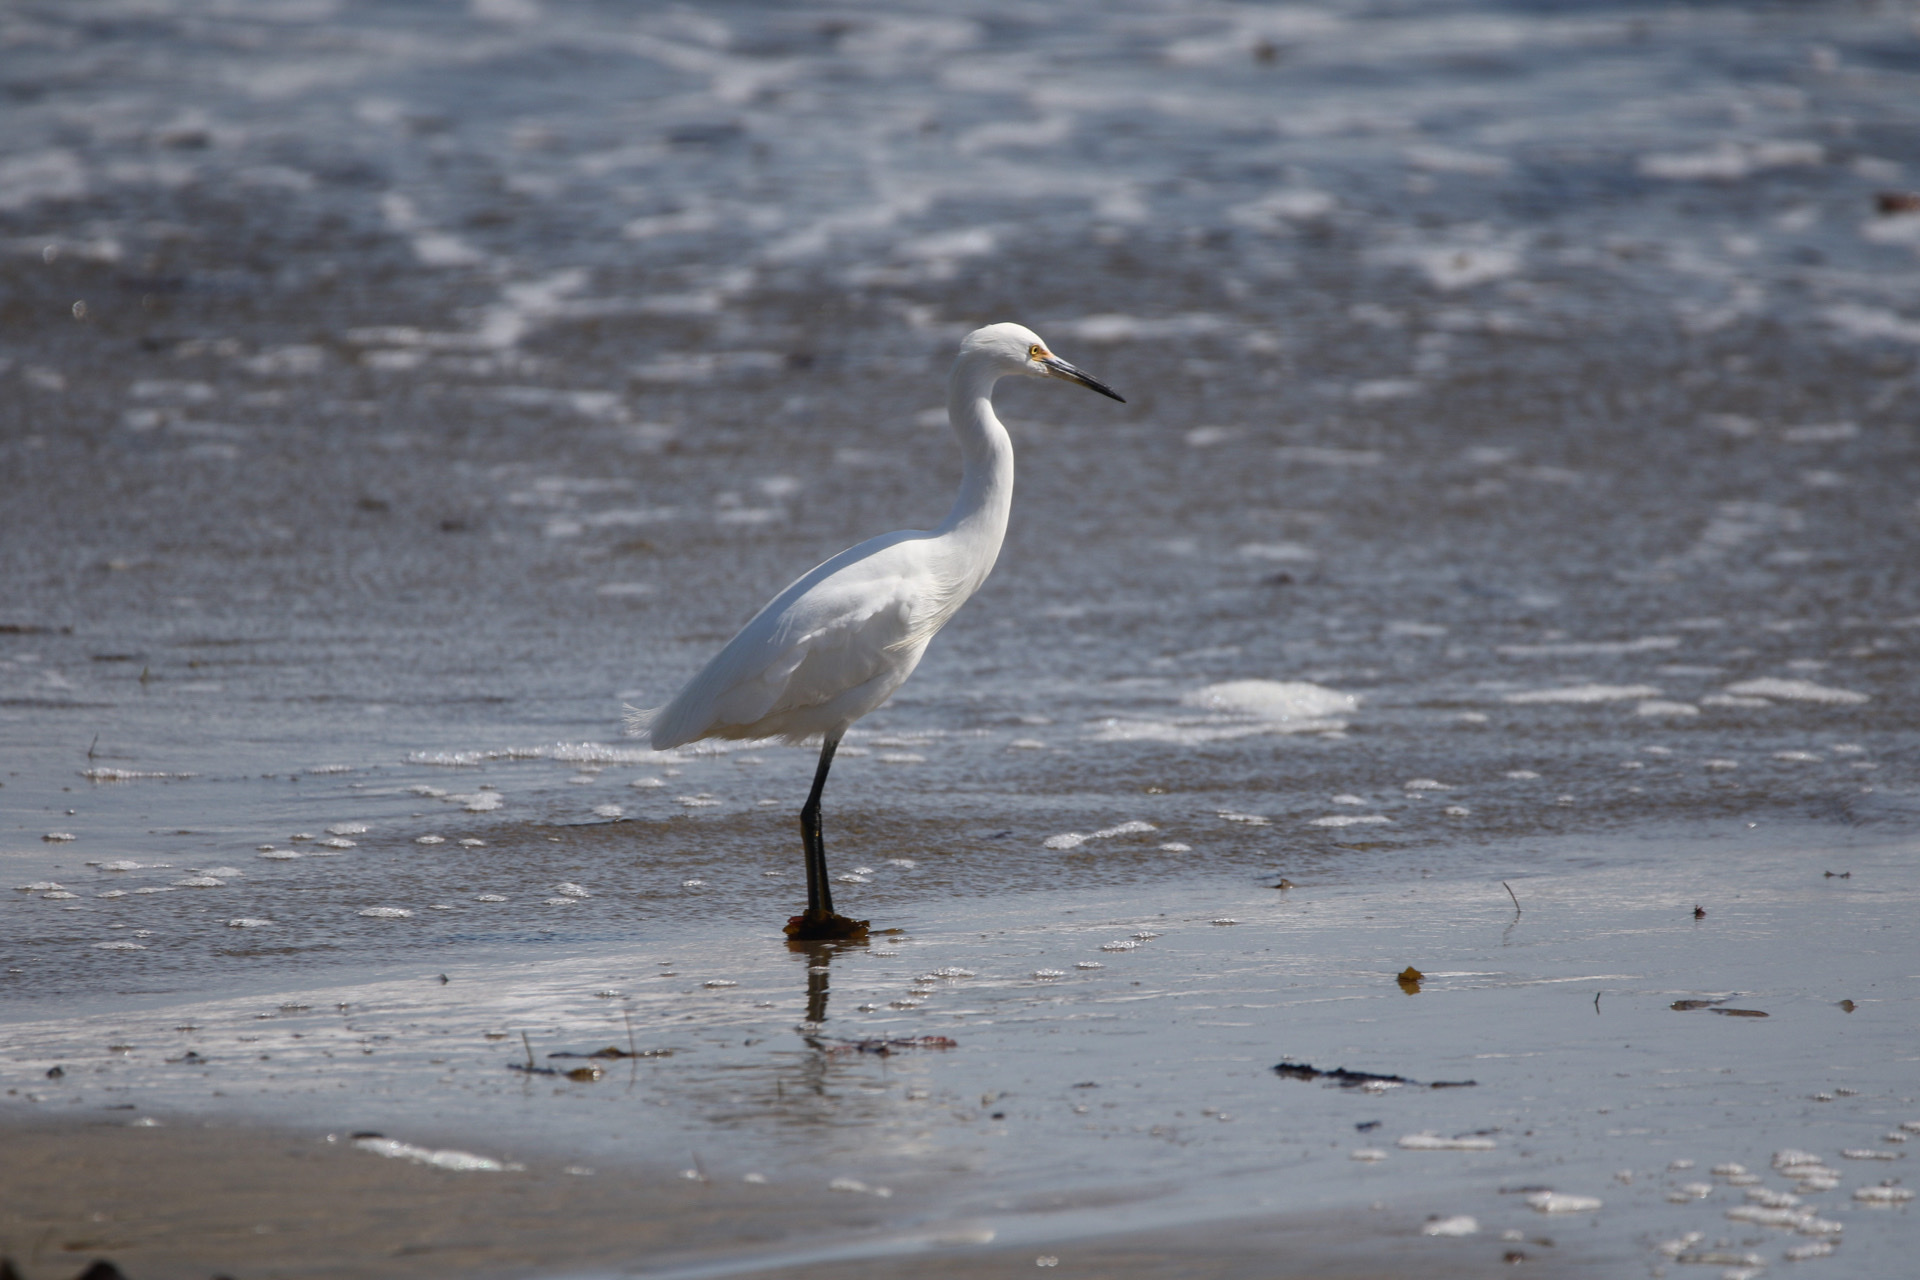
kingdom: Animalia
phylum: Chordata
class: Aves
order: Pelecaniformes
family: Ardeidae
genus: Egretta
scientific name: Egretta thula
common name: Snowy egret
